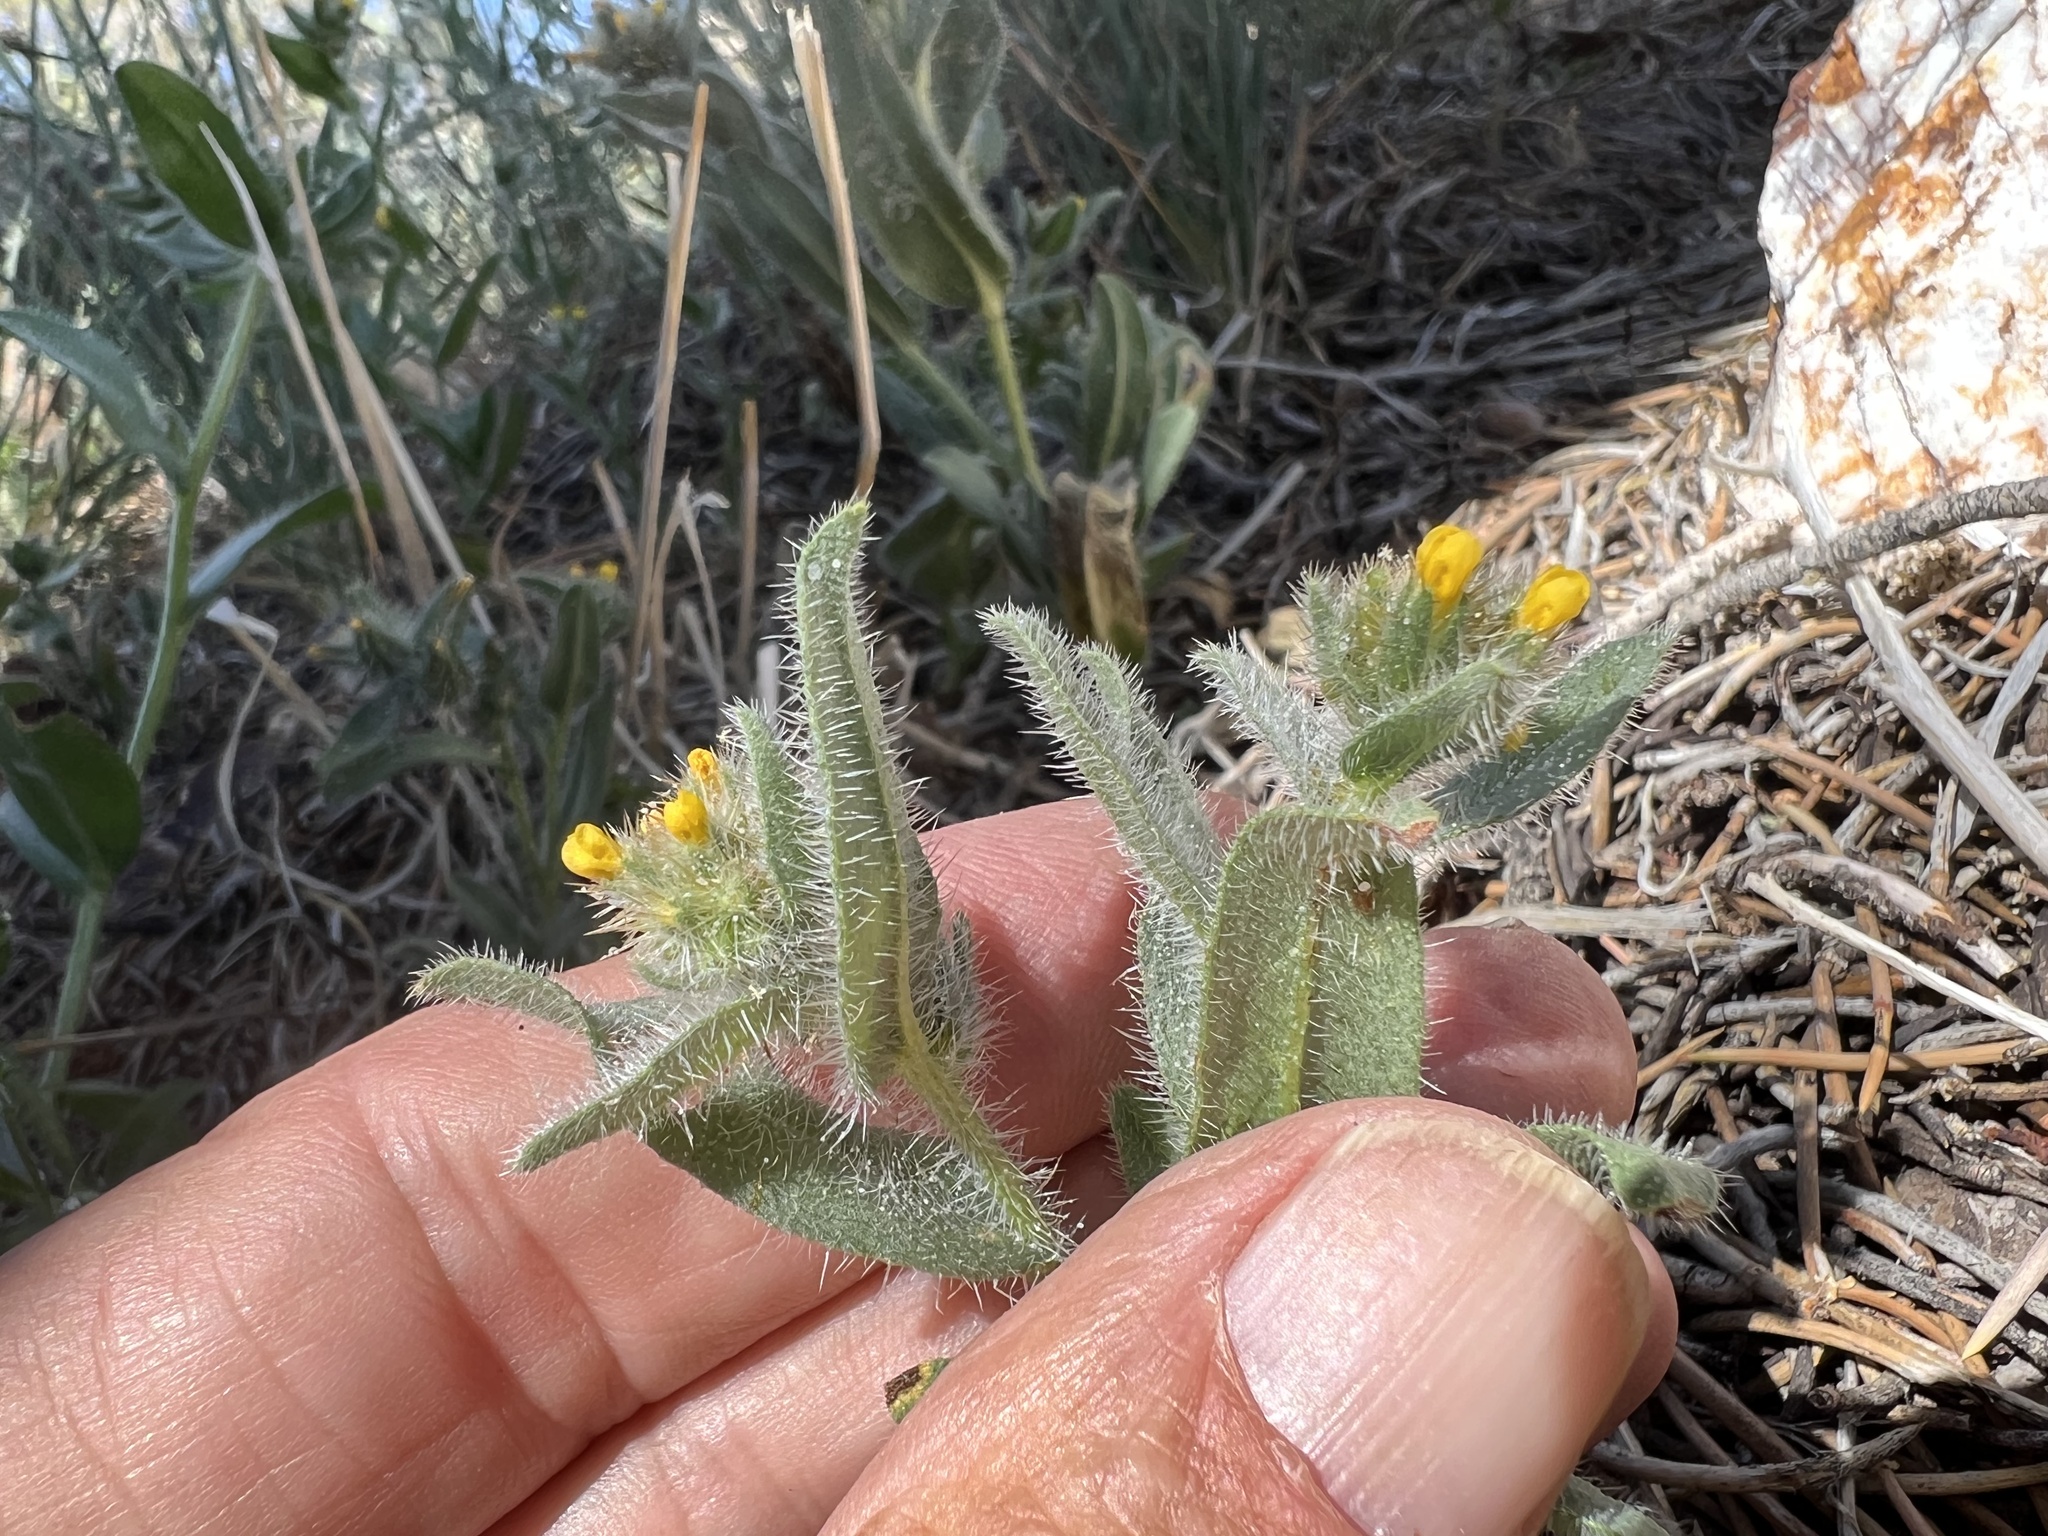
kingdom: Plantae
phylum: Tracheophyta
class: Magnoliopsida
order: Boraginales
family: Boraginaceae
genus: Amsinckia
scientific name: Amsinckia tessellata
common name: Tessellate fiddleneck
